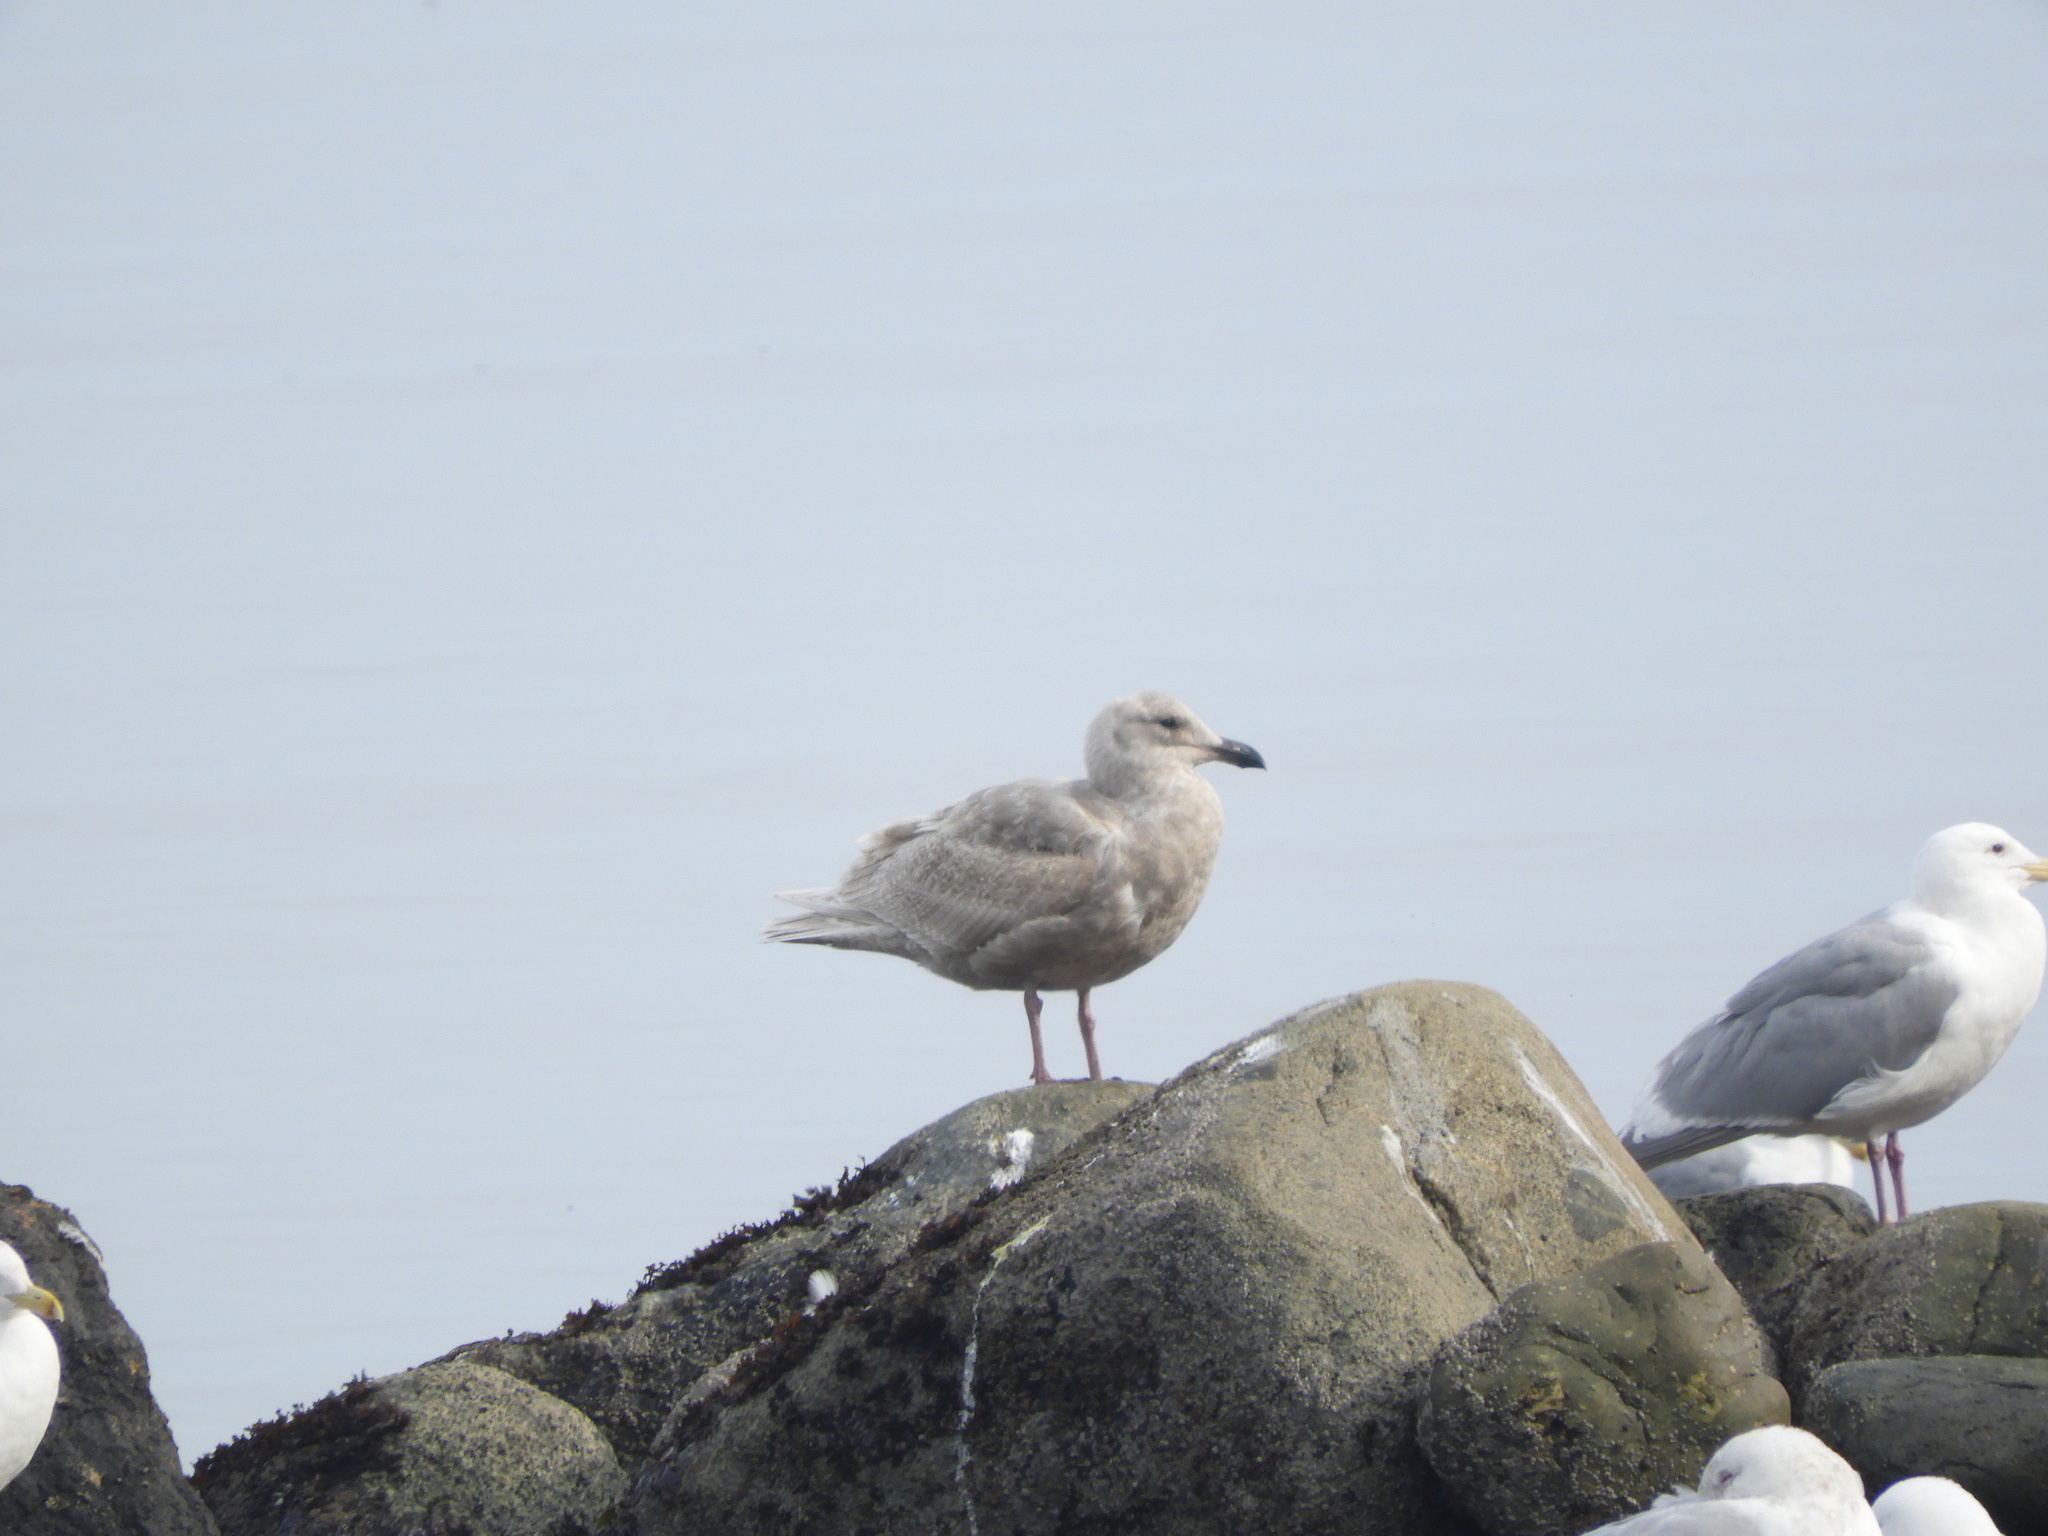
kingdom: Animalia
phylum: Chordata
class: Aves
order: Charadriiformes
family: Laridae
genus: Larus
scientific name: Larus glaucescens
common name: Glaucous-winged gull
